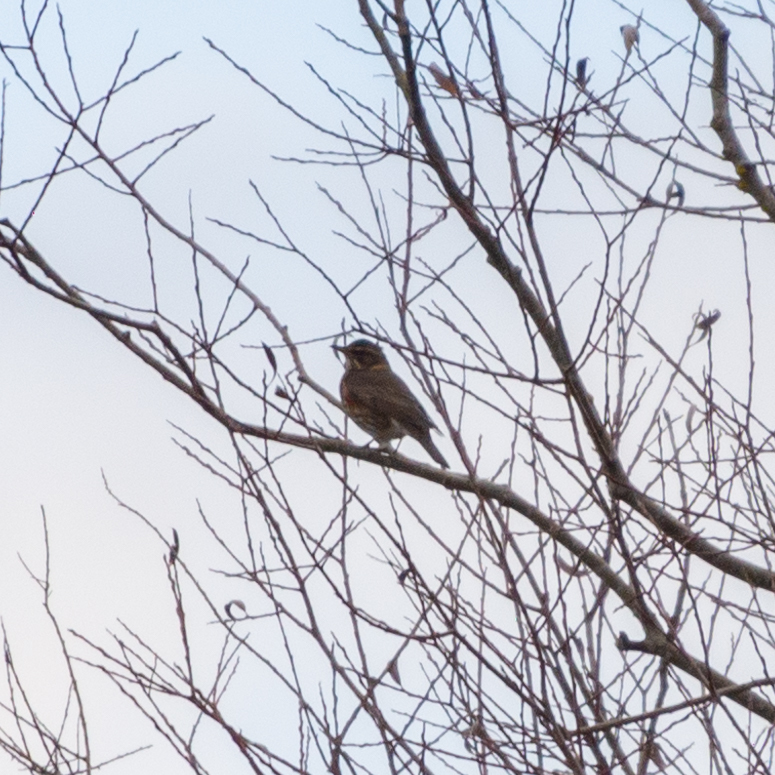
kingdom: Animalia
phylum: Chordata
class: Aves
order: Passeriformes
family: Turdidae
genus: Turdus
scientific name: Turdus iliacus
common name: Redwing
